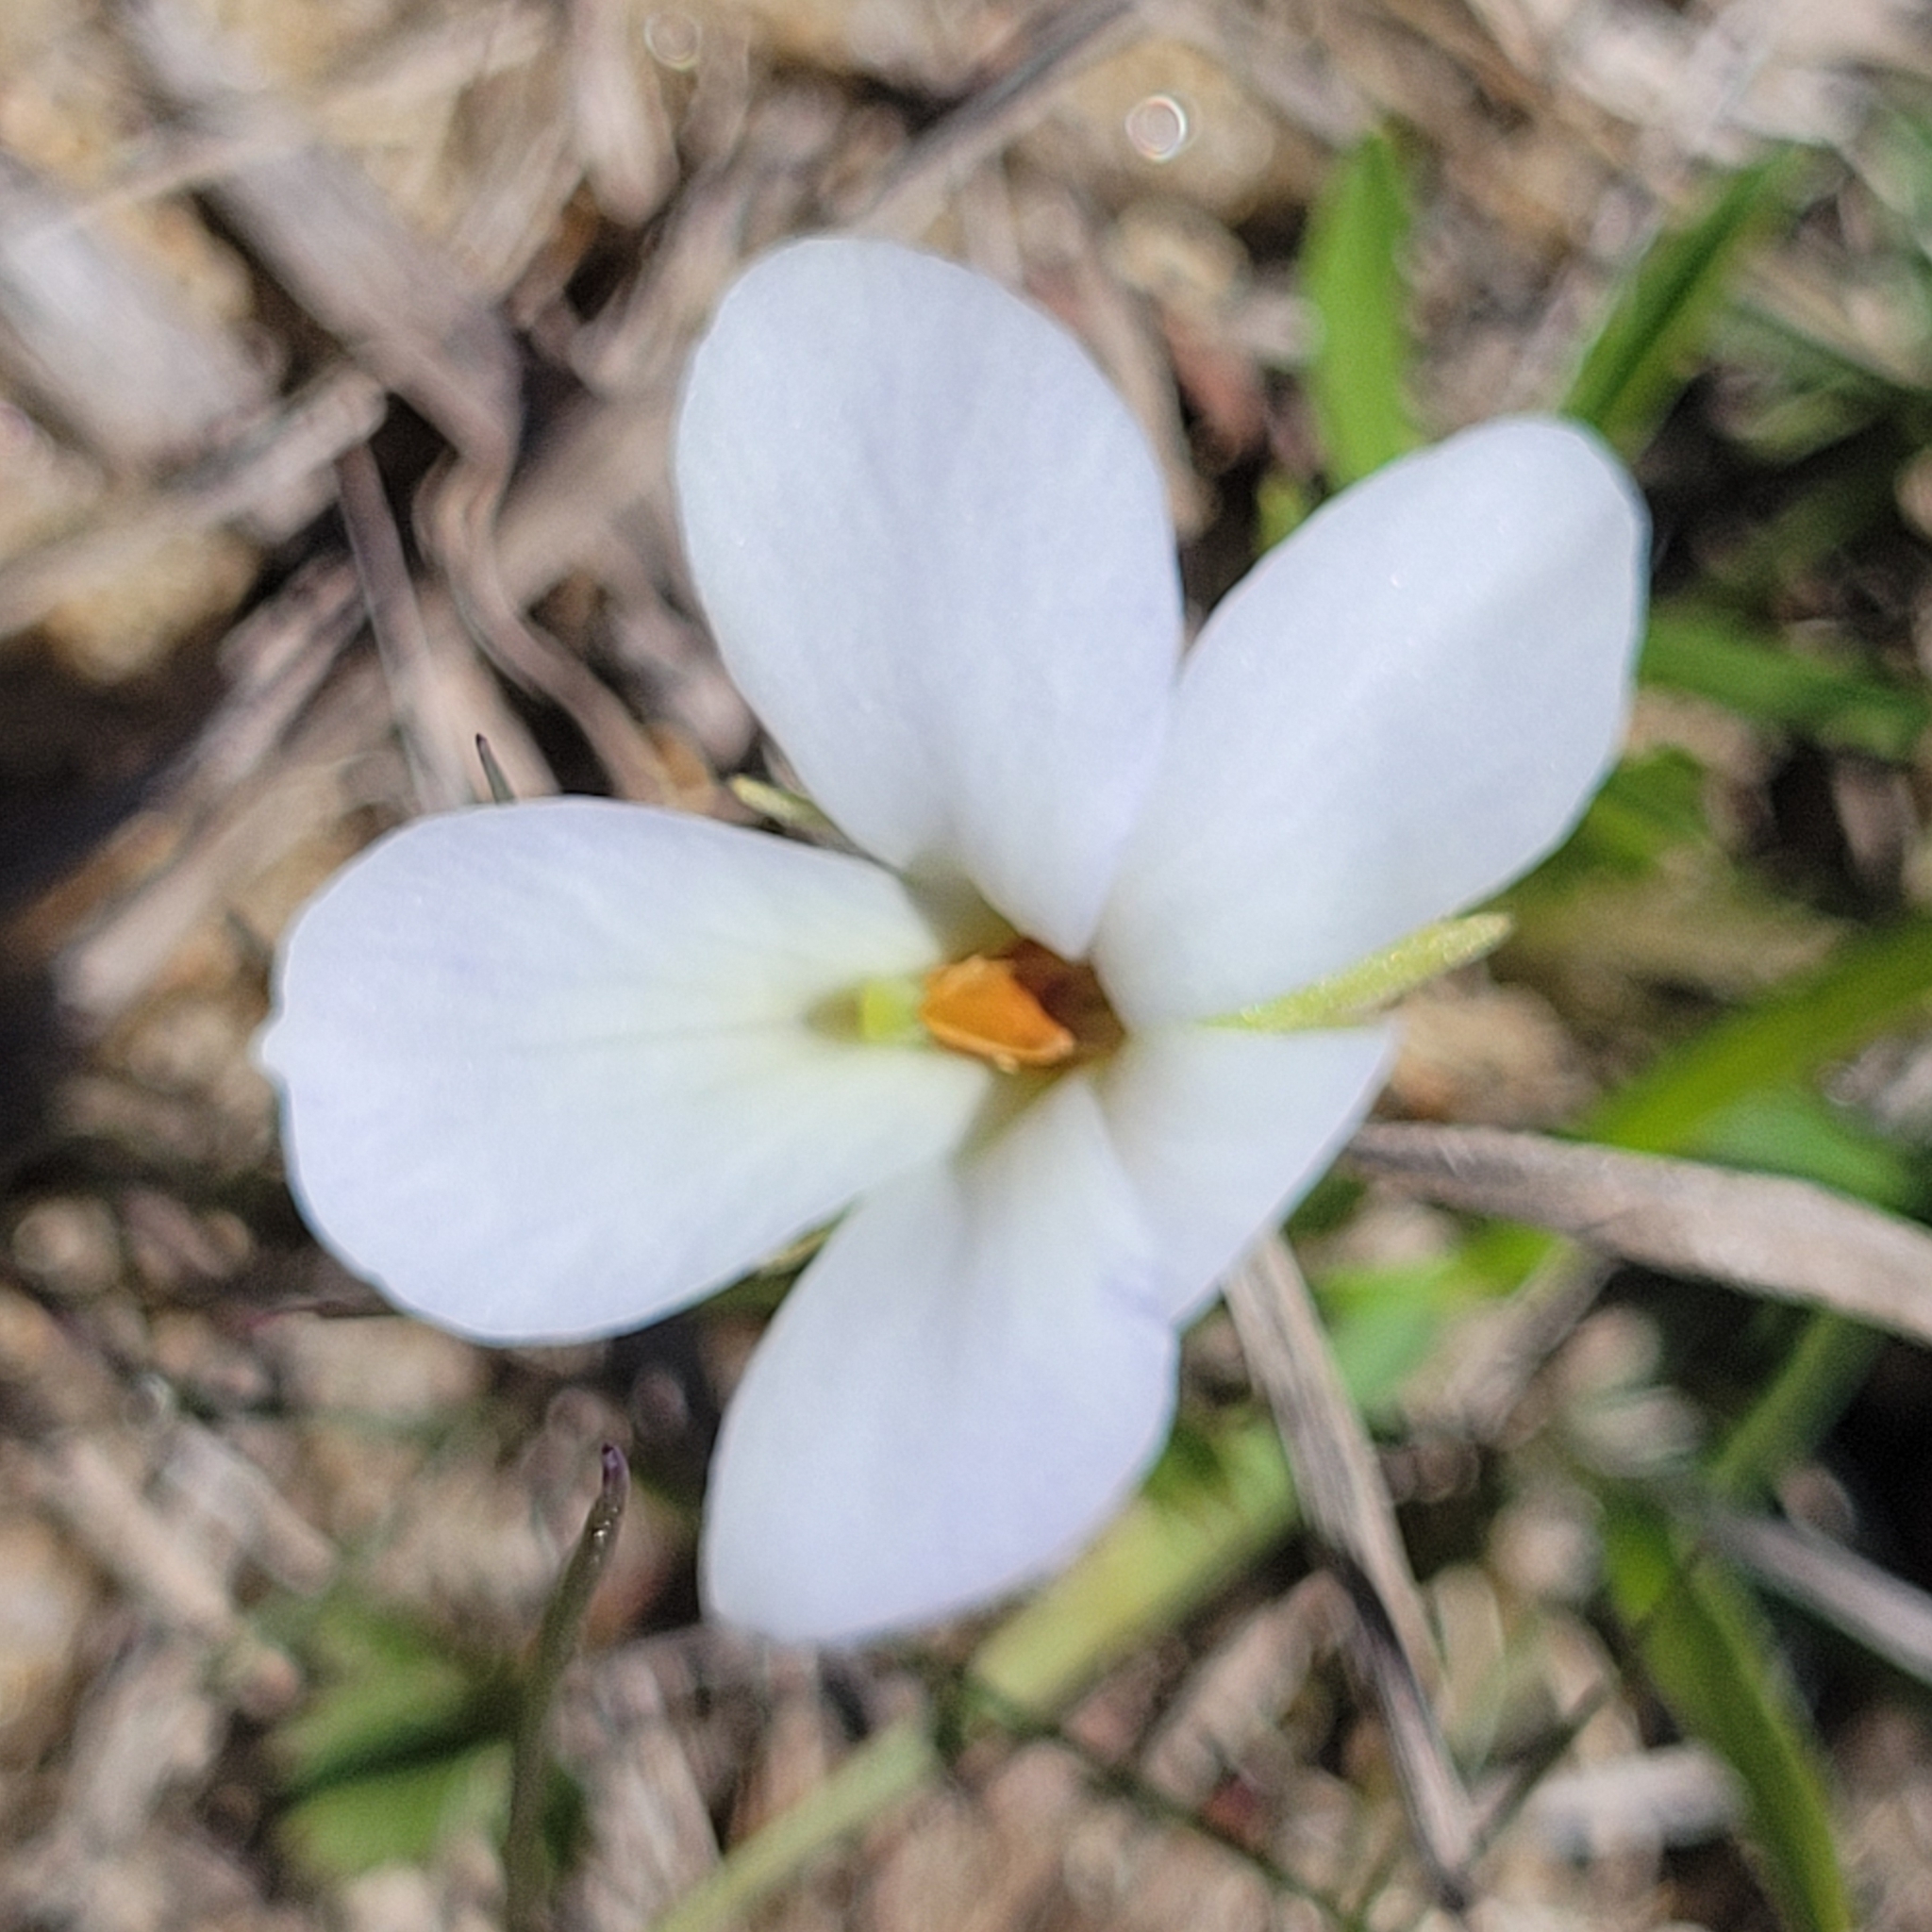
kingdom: Plantae
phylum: Tracheophyta
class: Magnoliopsida
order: Malpighiales
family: Violaceae
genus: Viola
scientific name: Viola pedata
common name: Pansy violet
